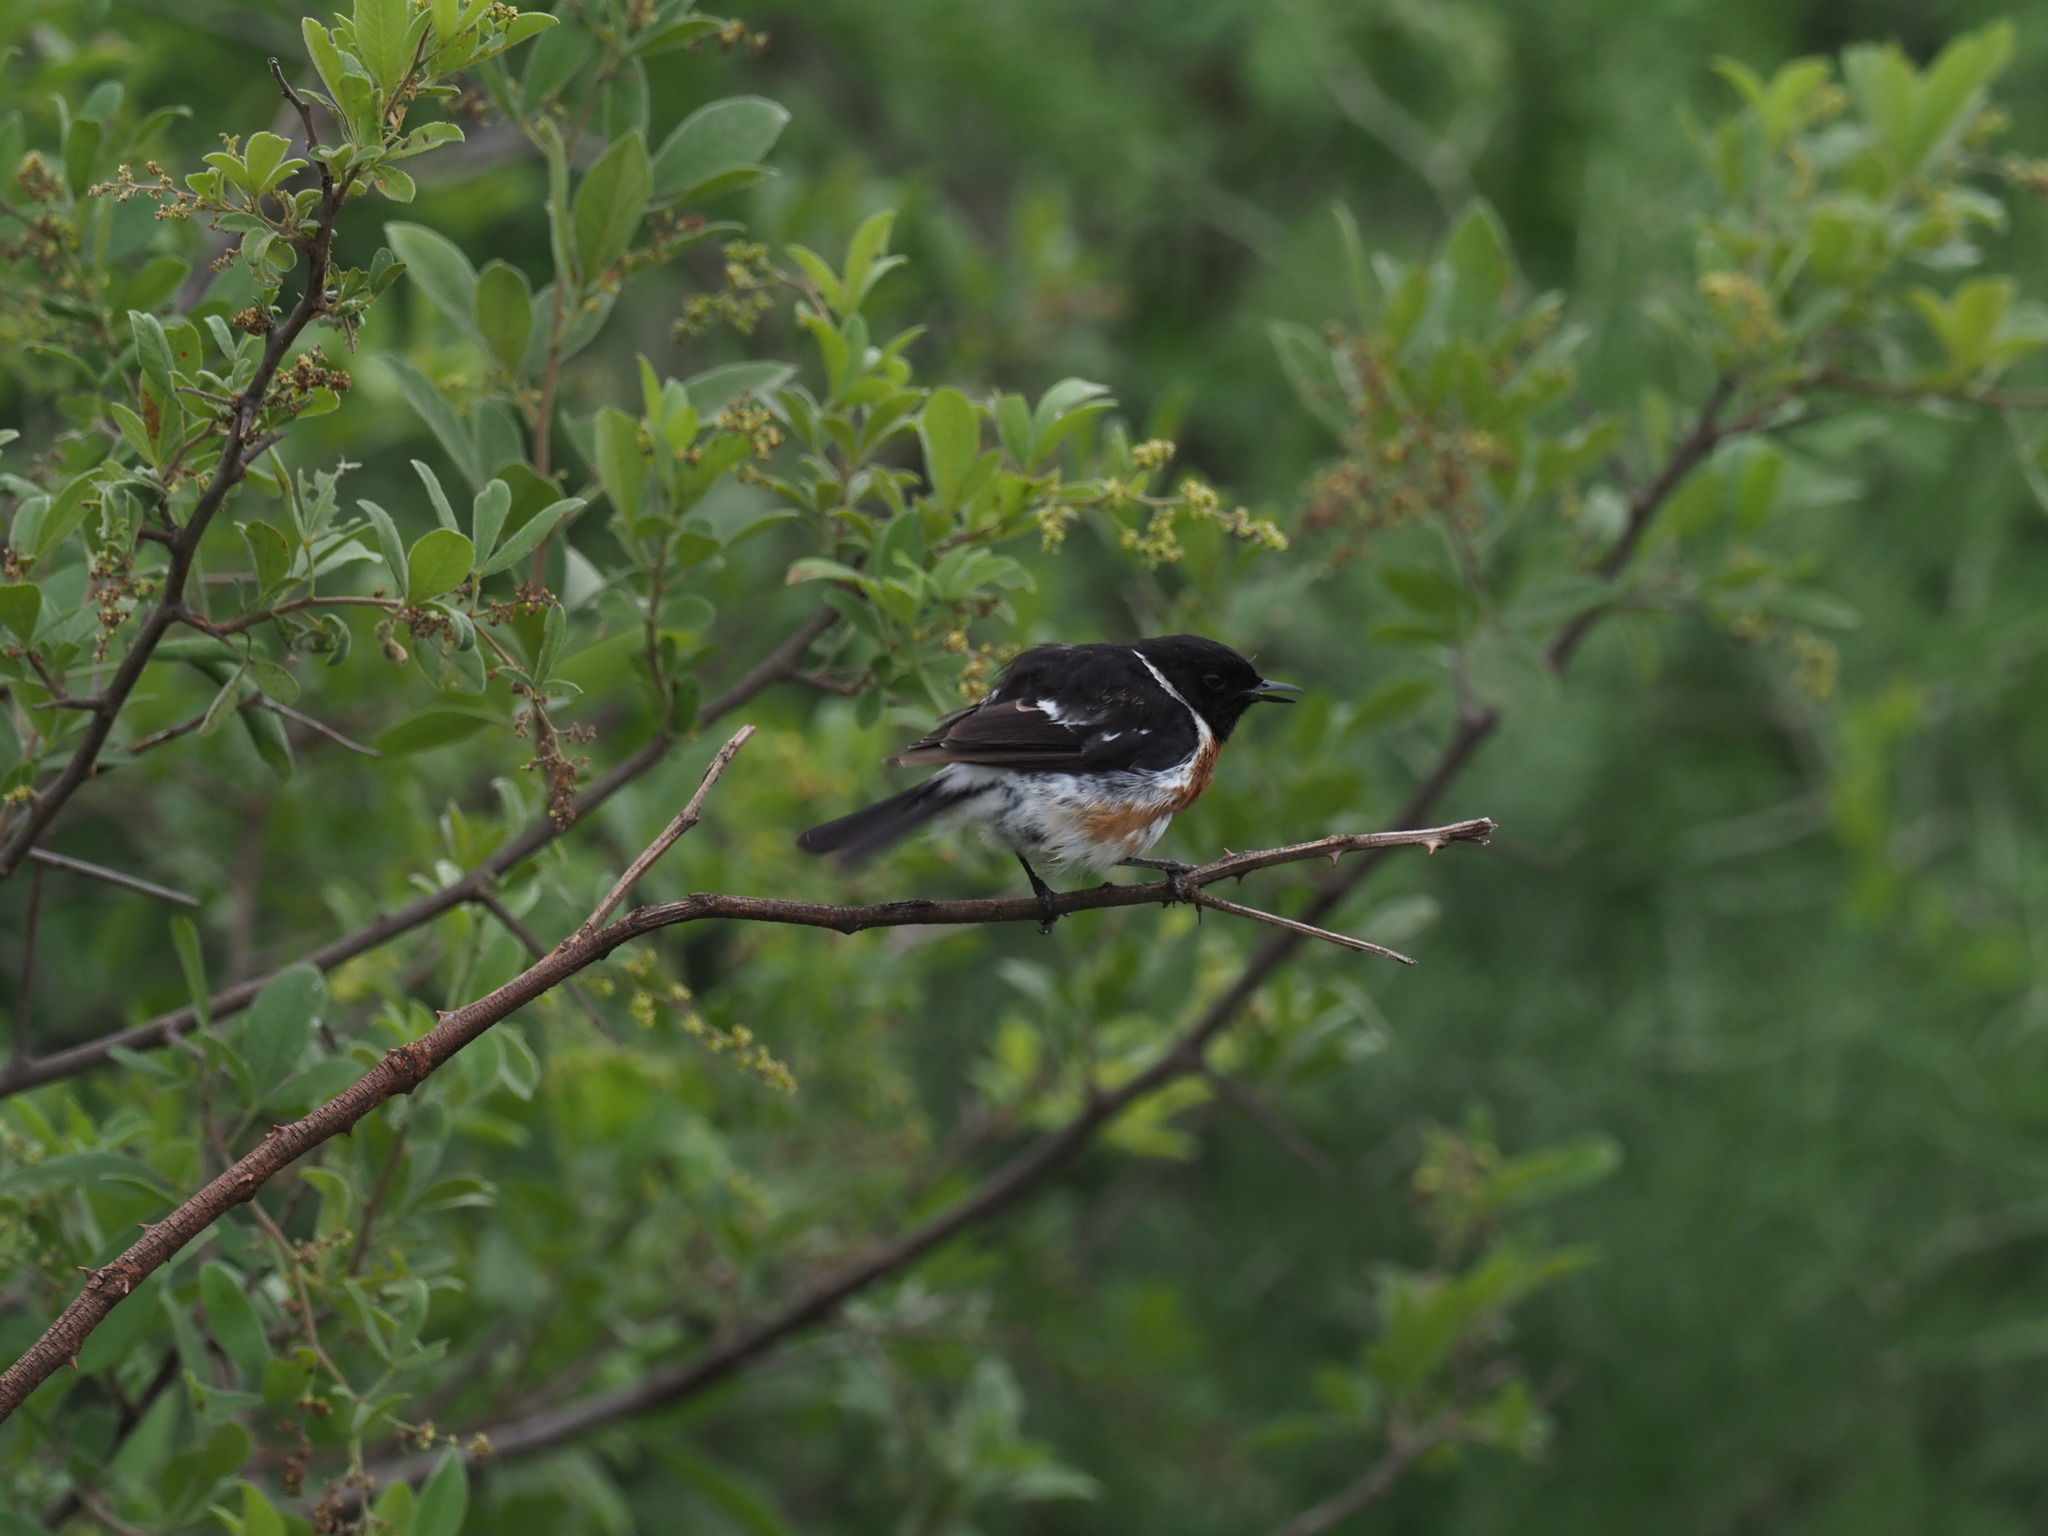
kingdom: Animalia
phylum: Chordata
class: Aves
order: Passeriformes
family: Muscicapidae
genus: Saxicola
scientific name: Saxicola torquatus
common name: African stonechat
